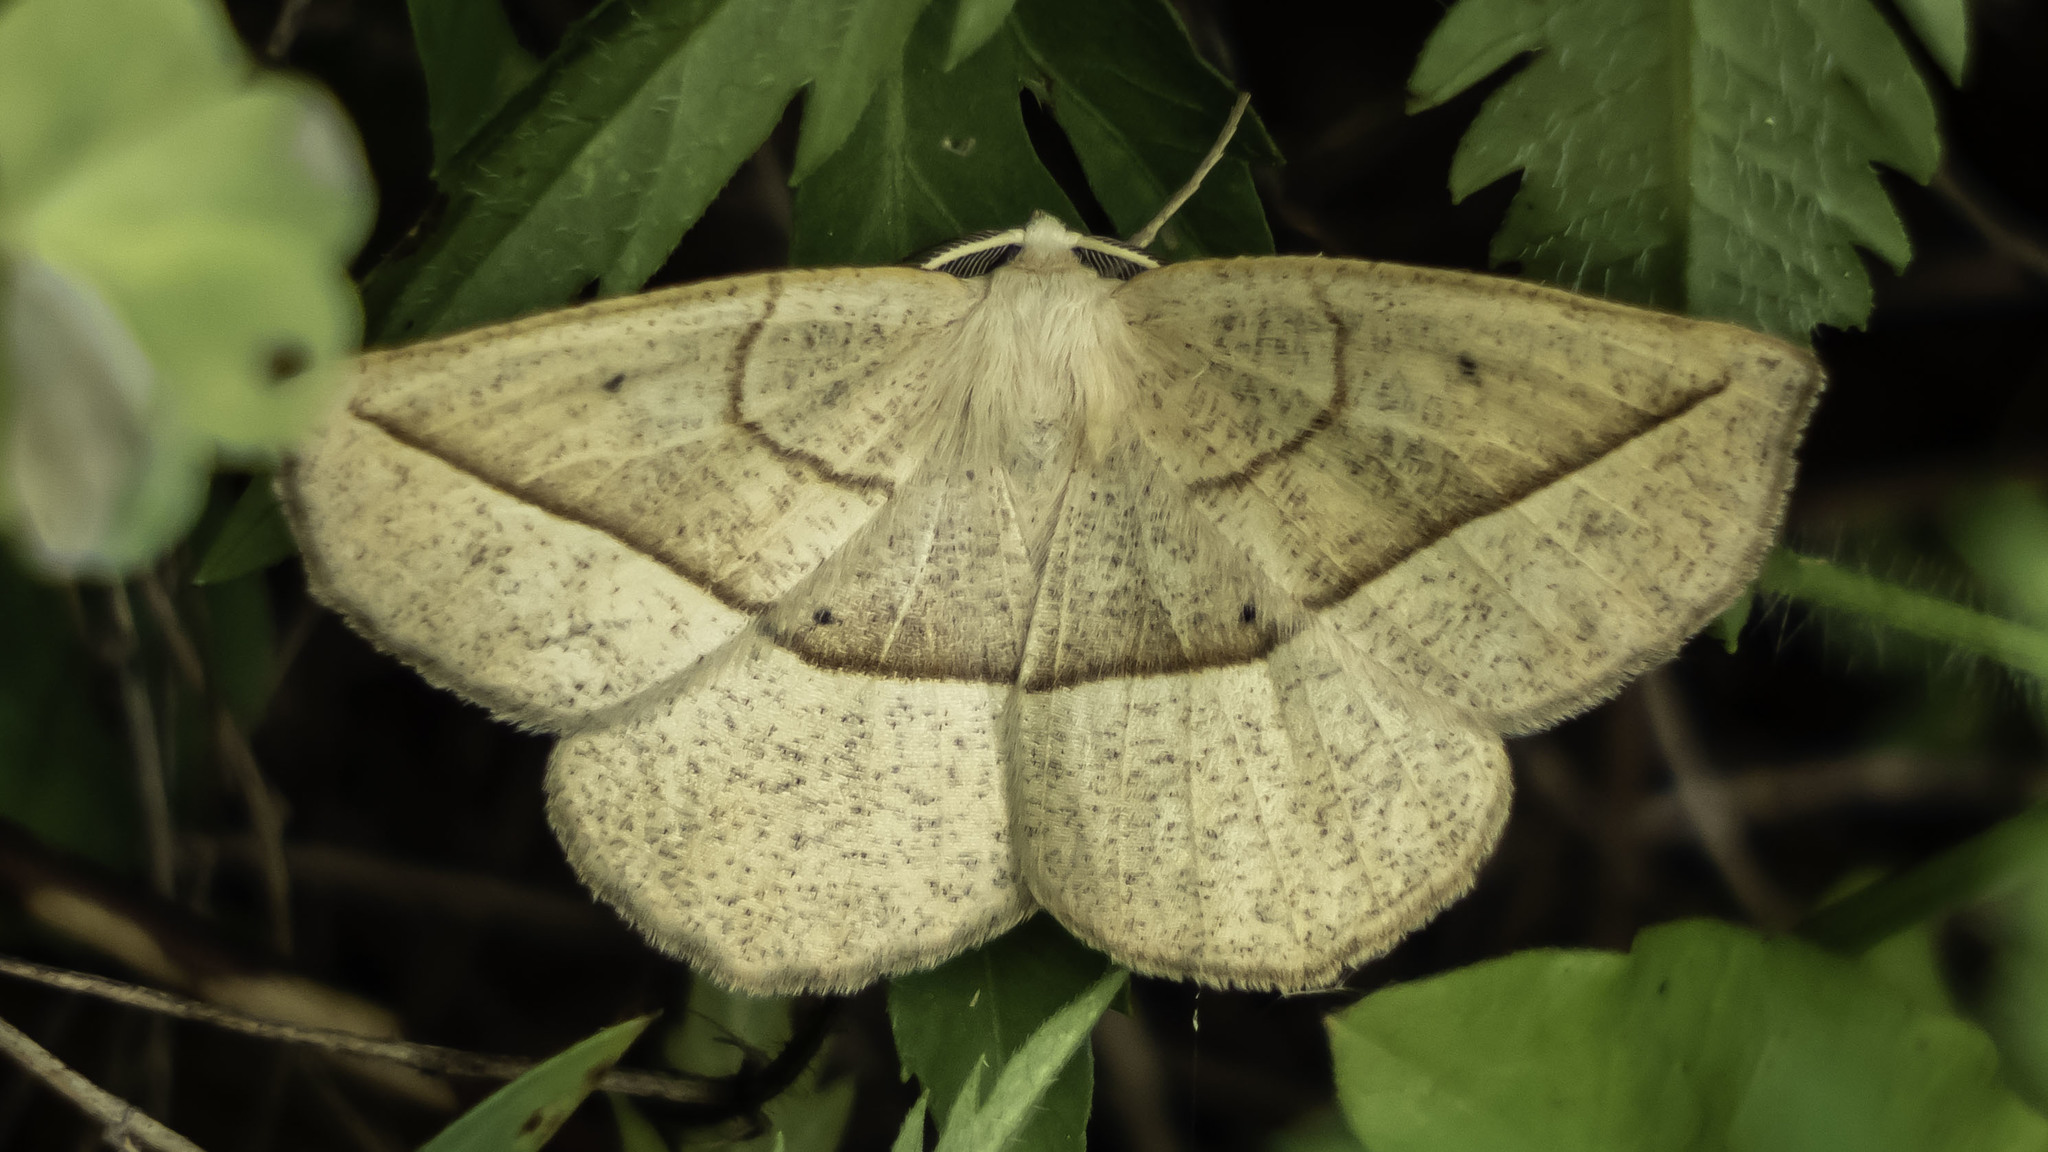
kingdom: Animalia
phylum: Arthropoda
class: Insecta
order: Lepidoptera
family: Geometridae
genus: Eusarca
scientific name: Eusarca confusaria
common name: Confused eusarca
